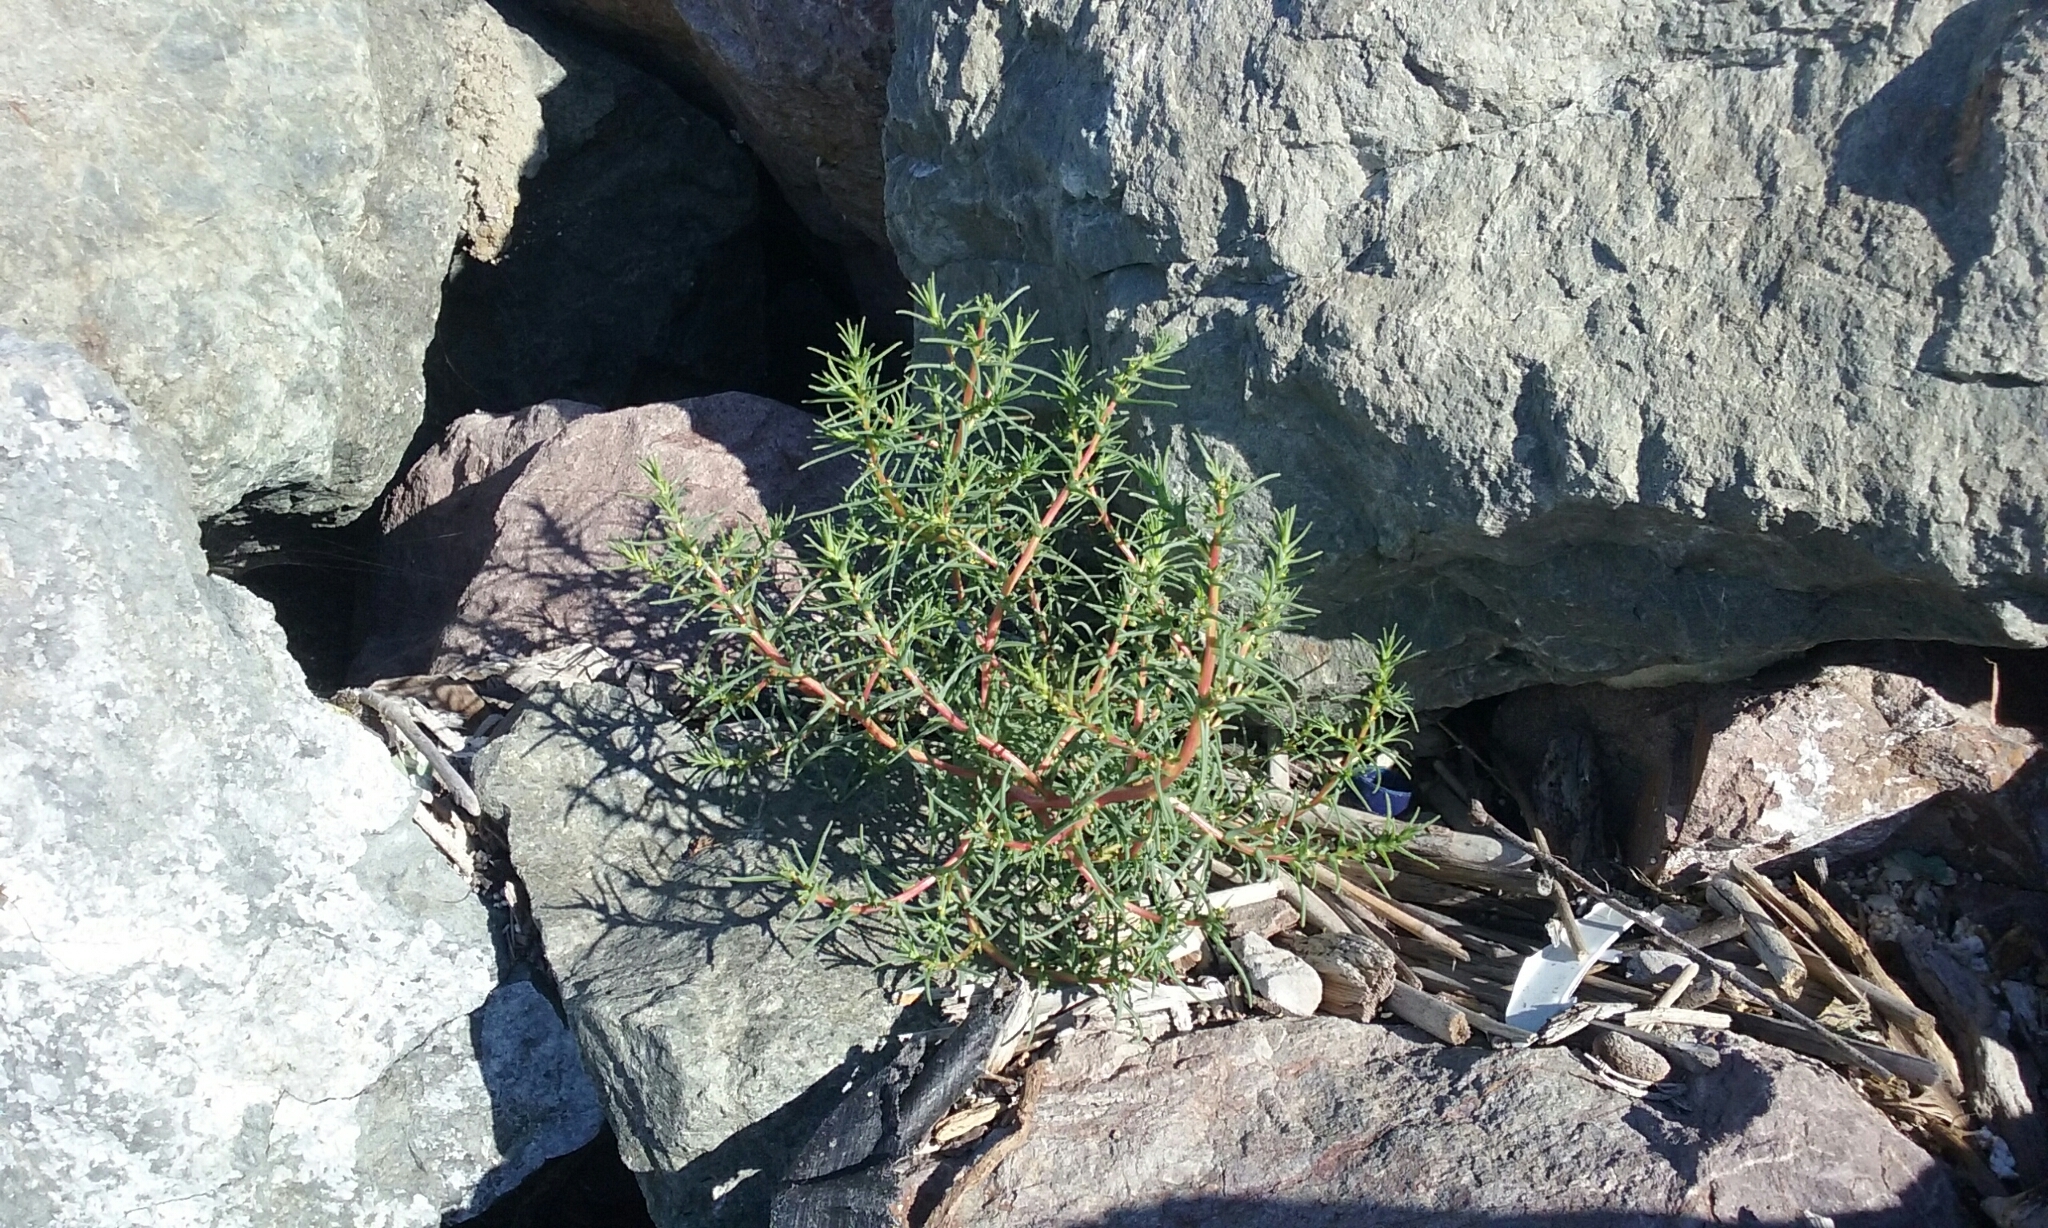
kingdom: Plantae
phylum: Tracheophyta
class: Magnoliopsida
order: Caryophyllales
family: Amaranthaceae
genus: Salsola
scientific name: Salsola soda
